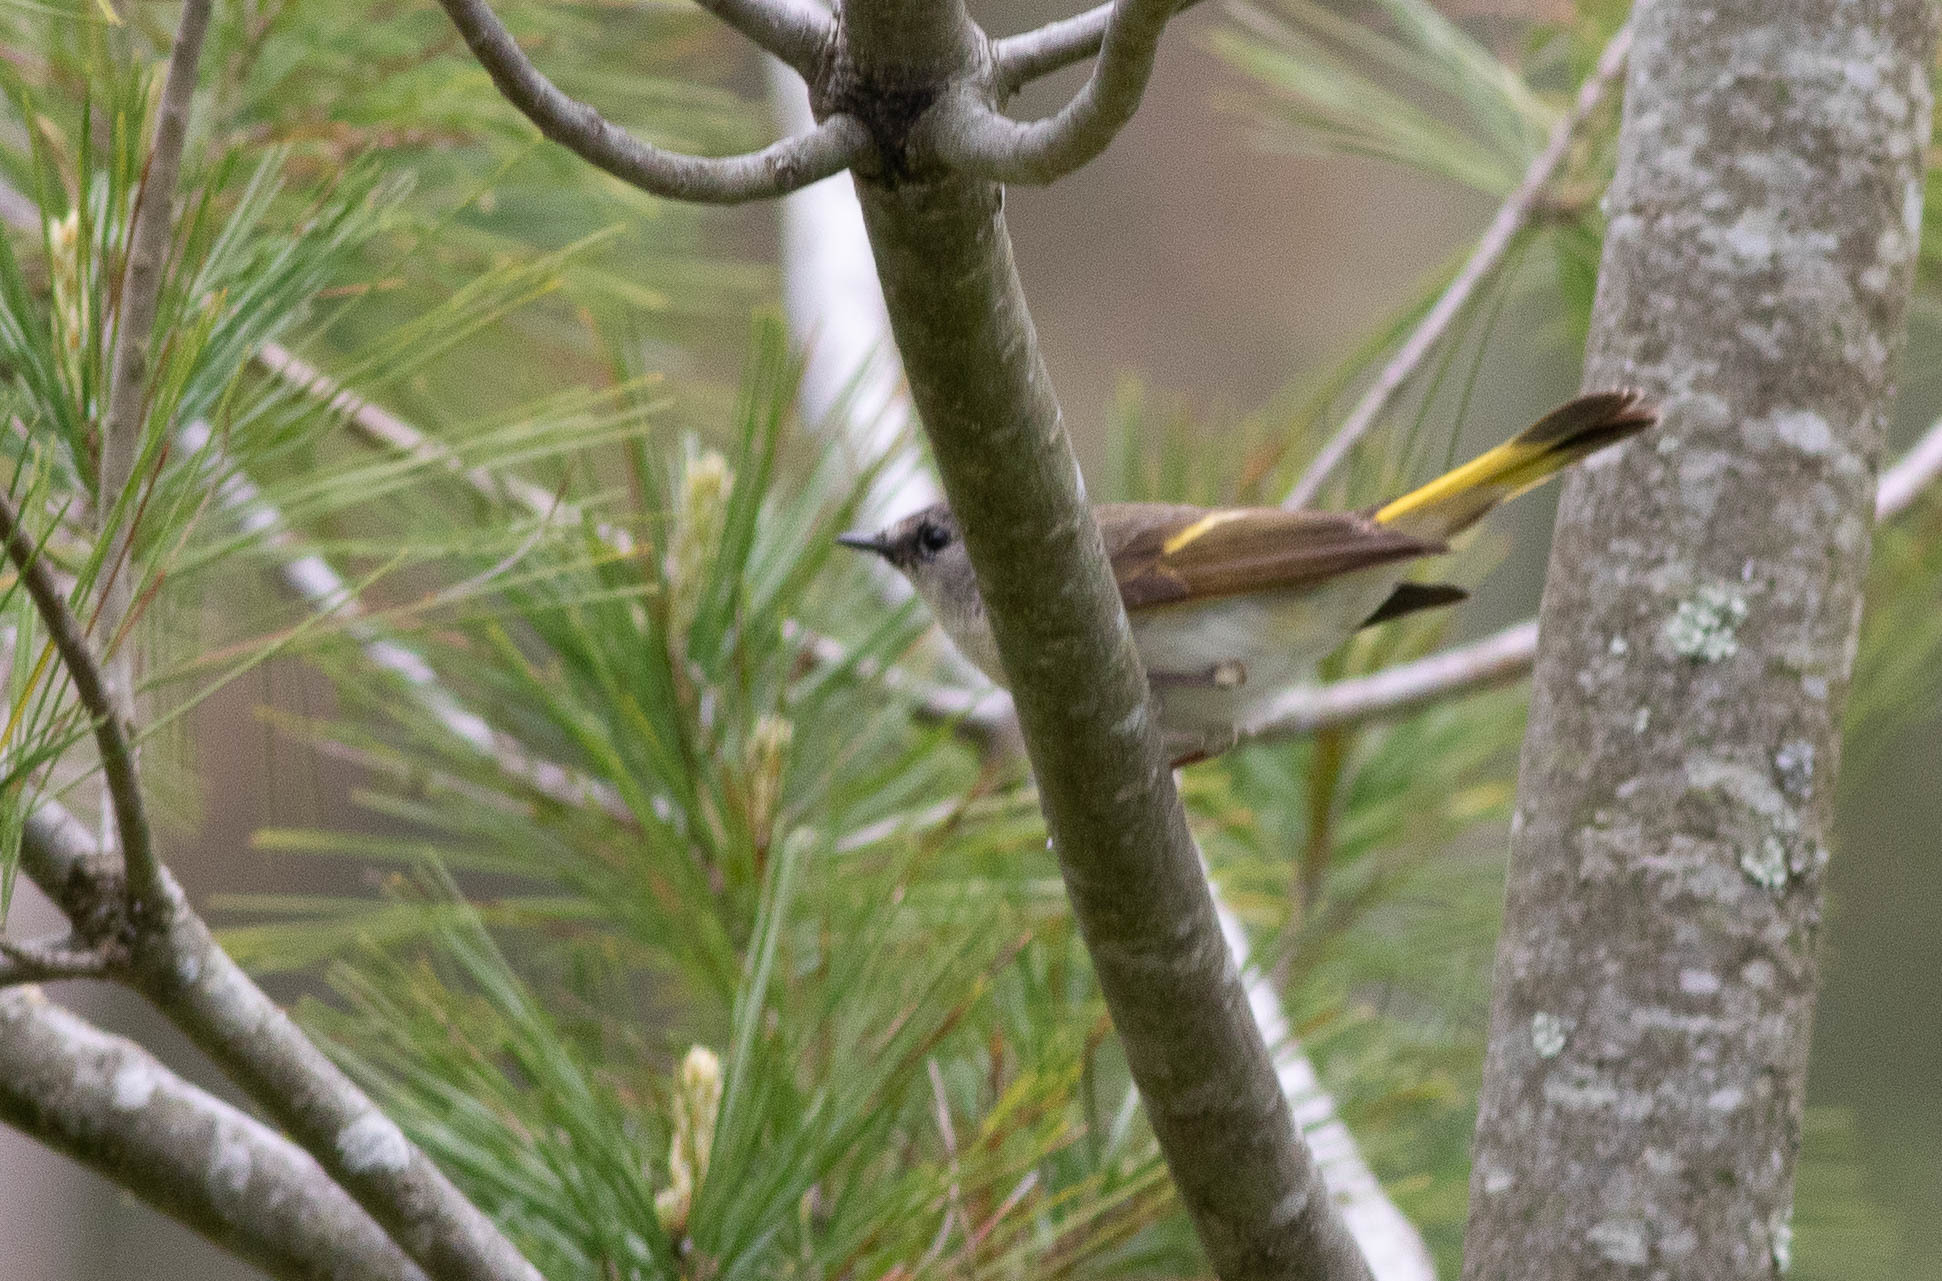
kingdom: Animalia
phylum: Chordata
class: Aves
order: Passeriformes
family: Parulidae
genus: Setophaga
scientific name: Setophaga ruticilla
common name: American redstart
